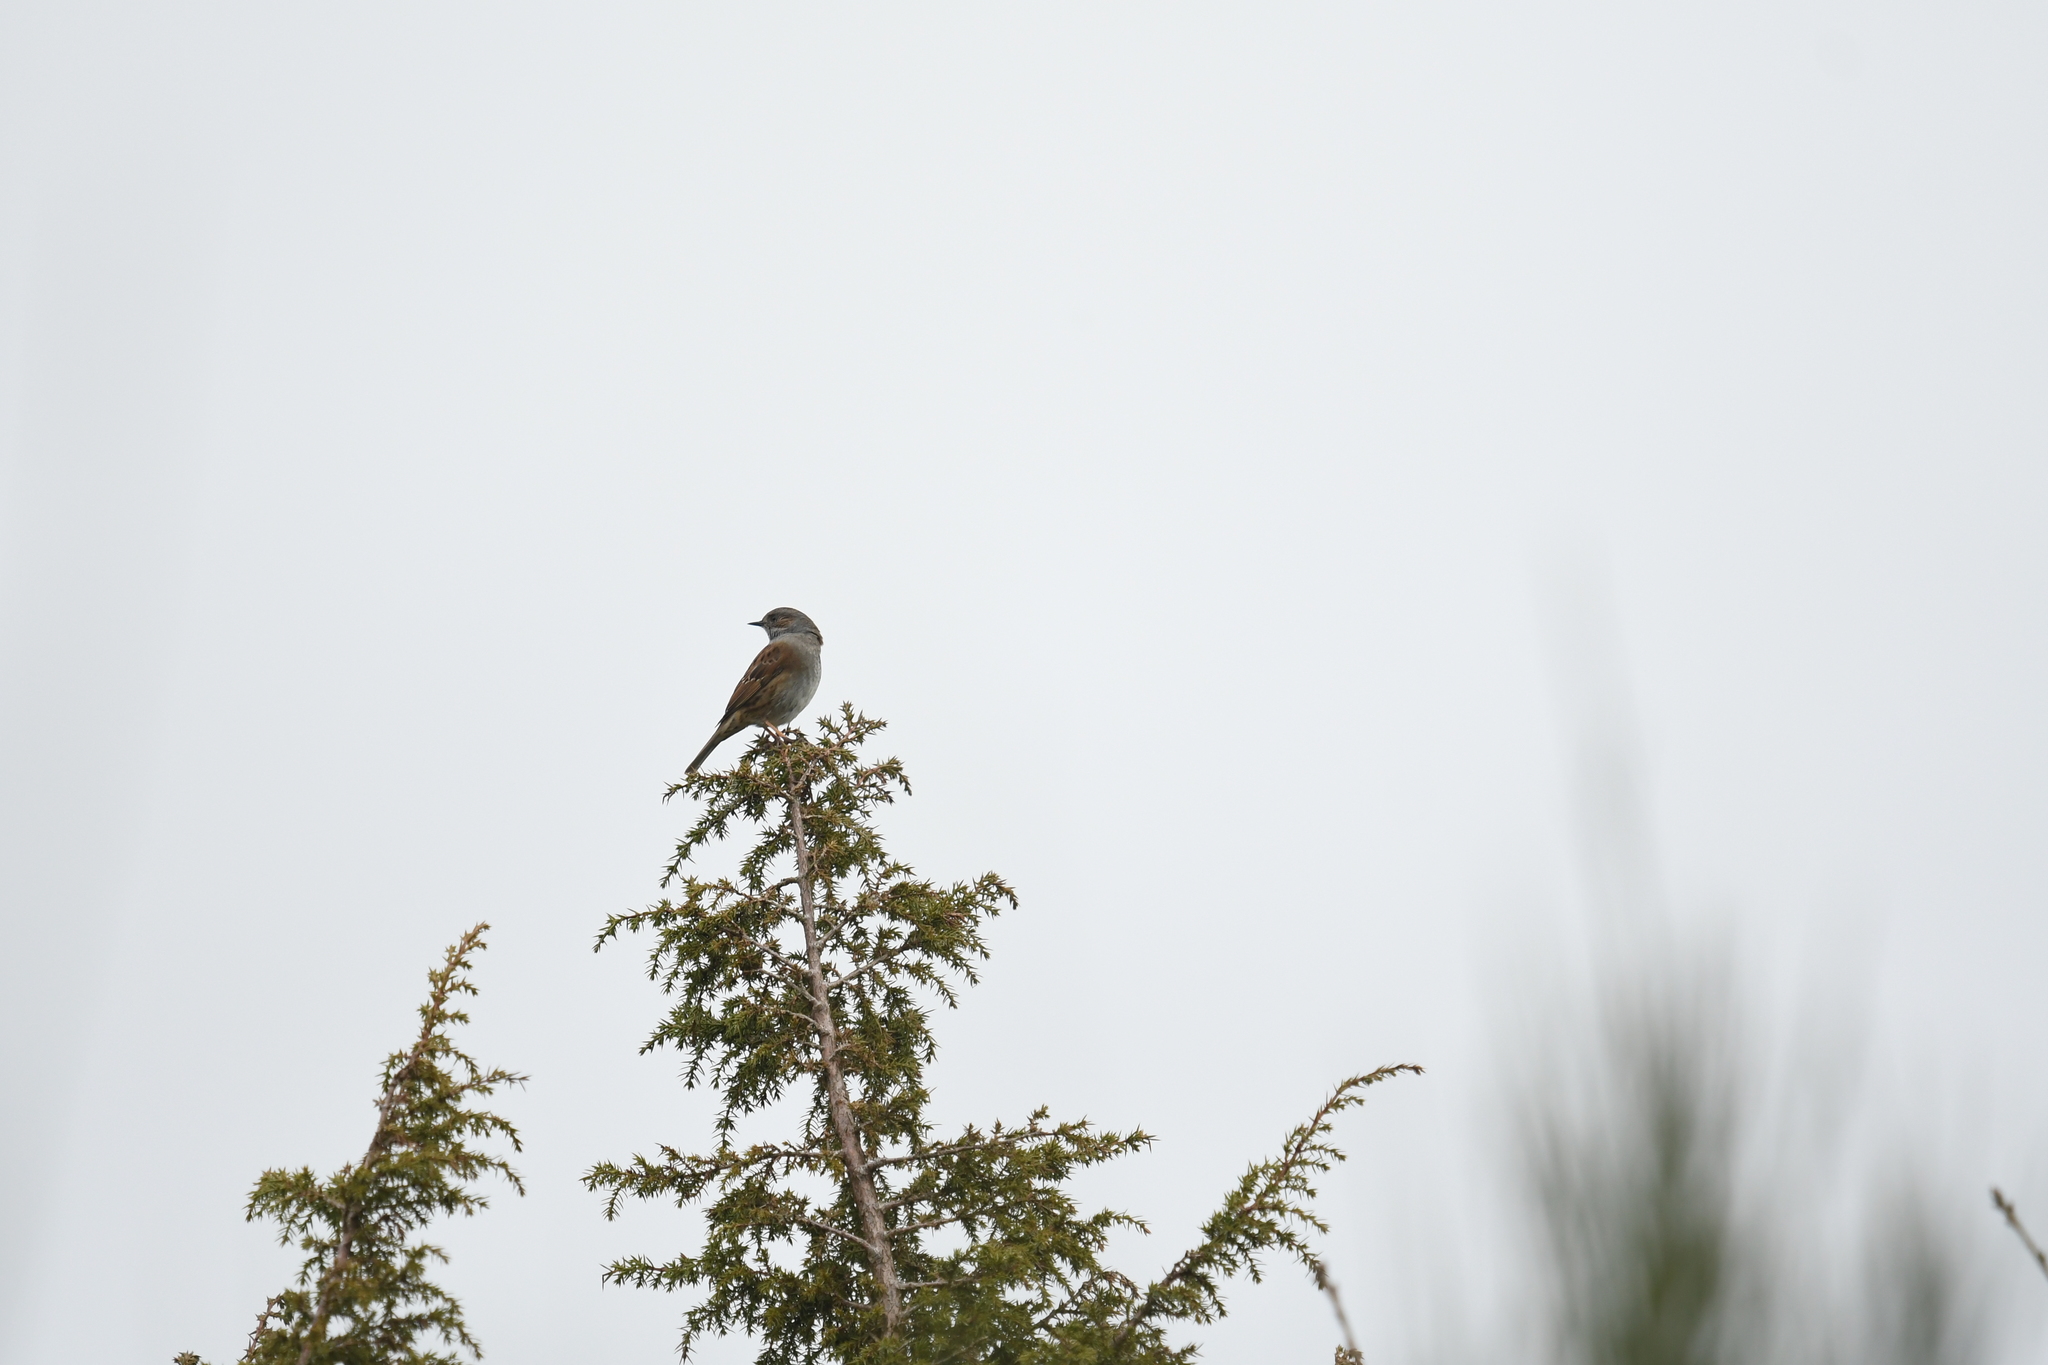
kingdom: Animalia
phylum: Chordata
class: Aves
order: Passeriformes
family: Prunellidae
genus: Prunella
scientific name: Prunella modularis
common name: Dunnock
